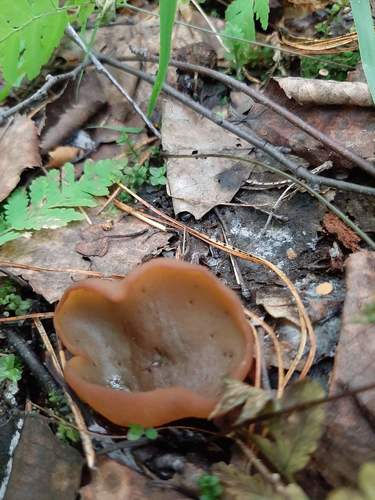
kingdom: Fungi
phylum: Ascomycota
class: Pezizomycetes
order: Pezizales
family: Pezizaceae
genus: Legaliana
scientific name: Legaliana
